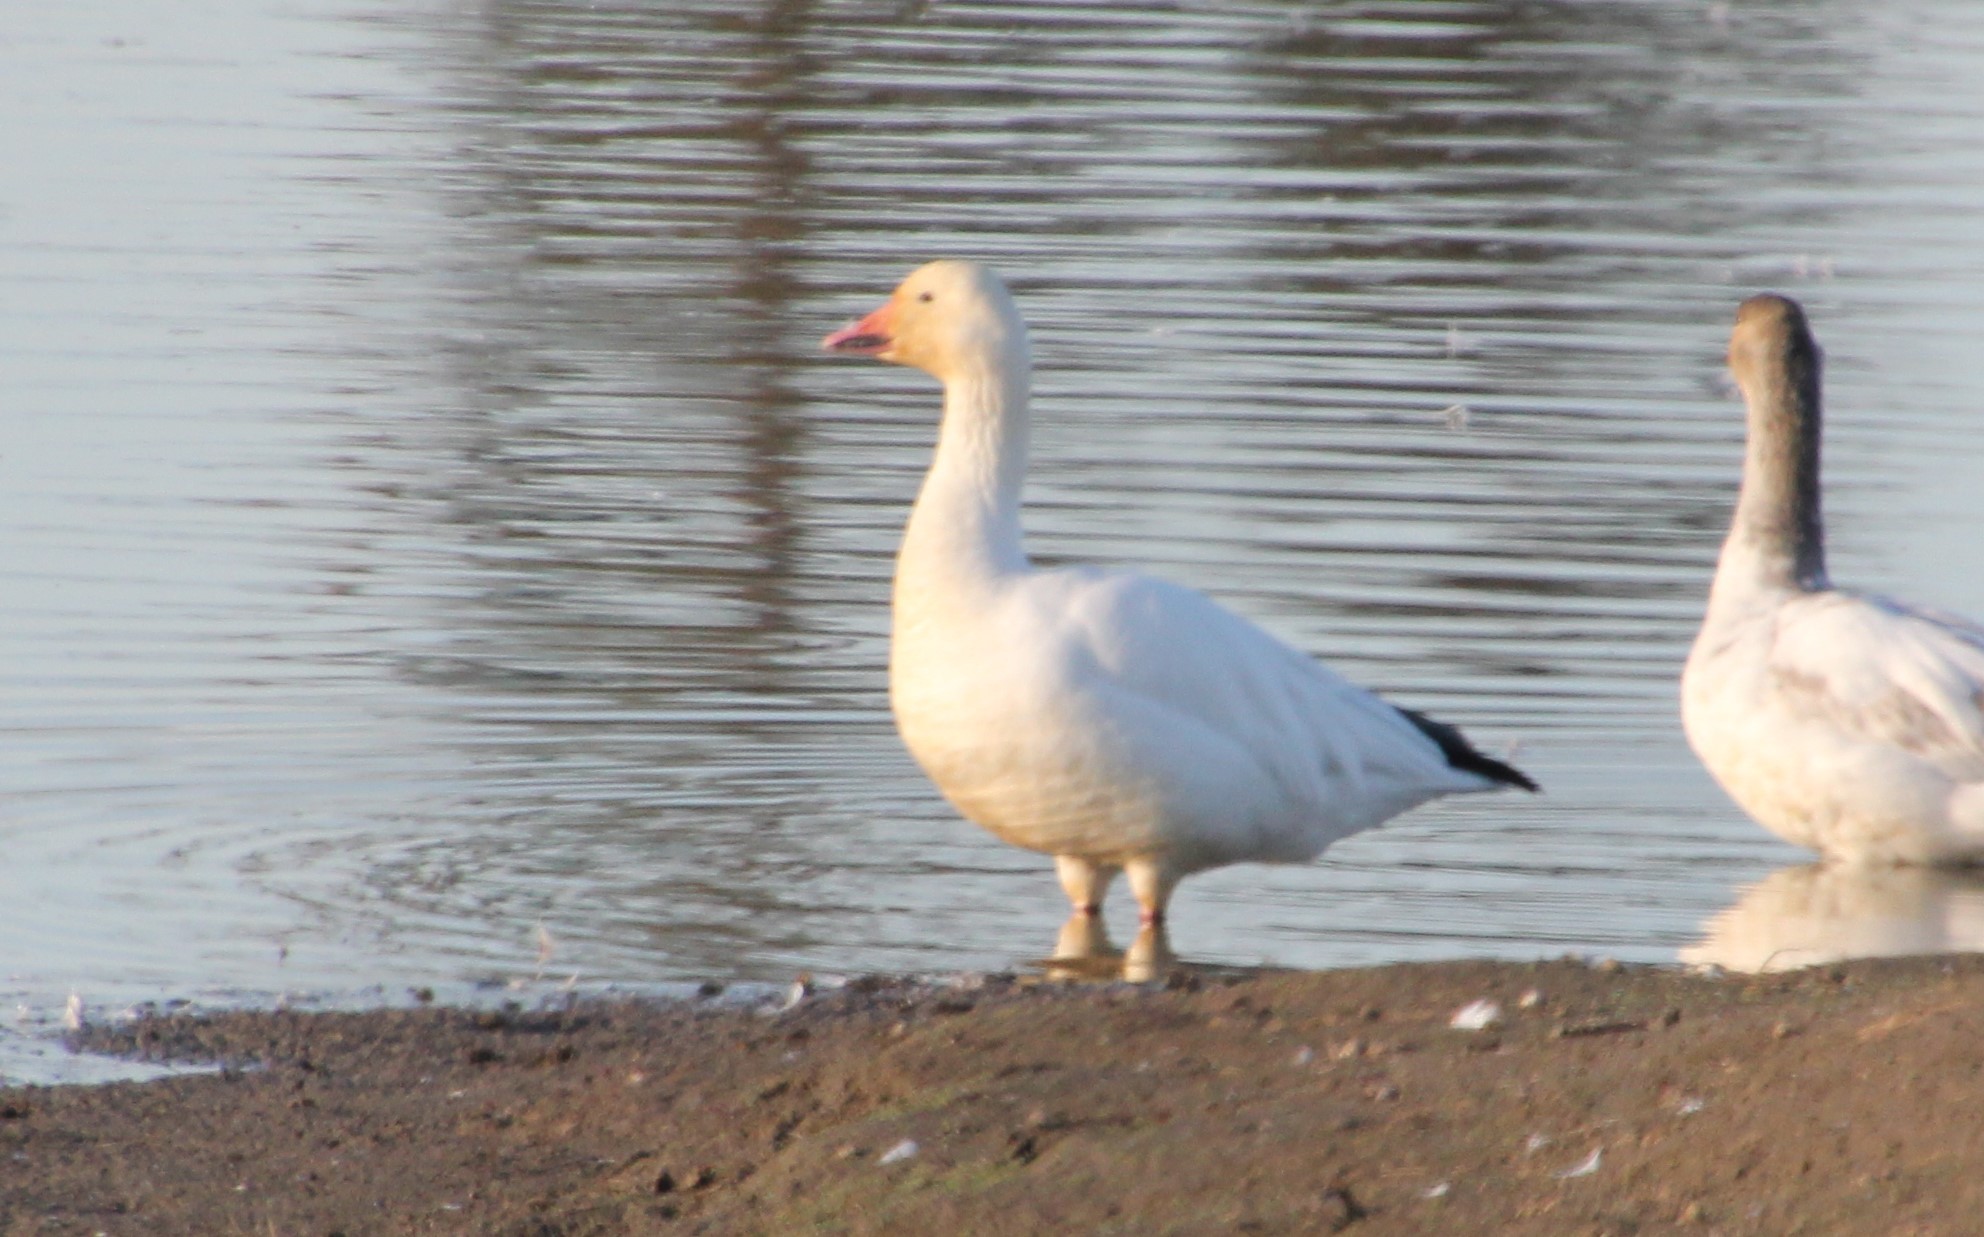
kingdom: Animalia
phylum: Chordata
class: Aves
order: Anseriformes
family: Anatidae
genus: Anser
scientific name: Anser caerulescens
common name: Snow goose
